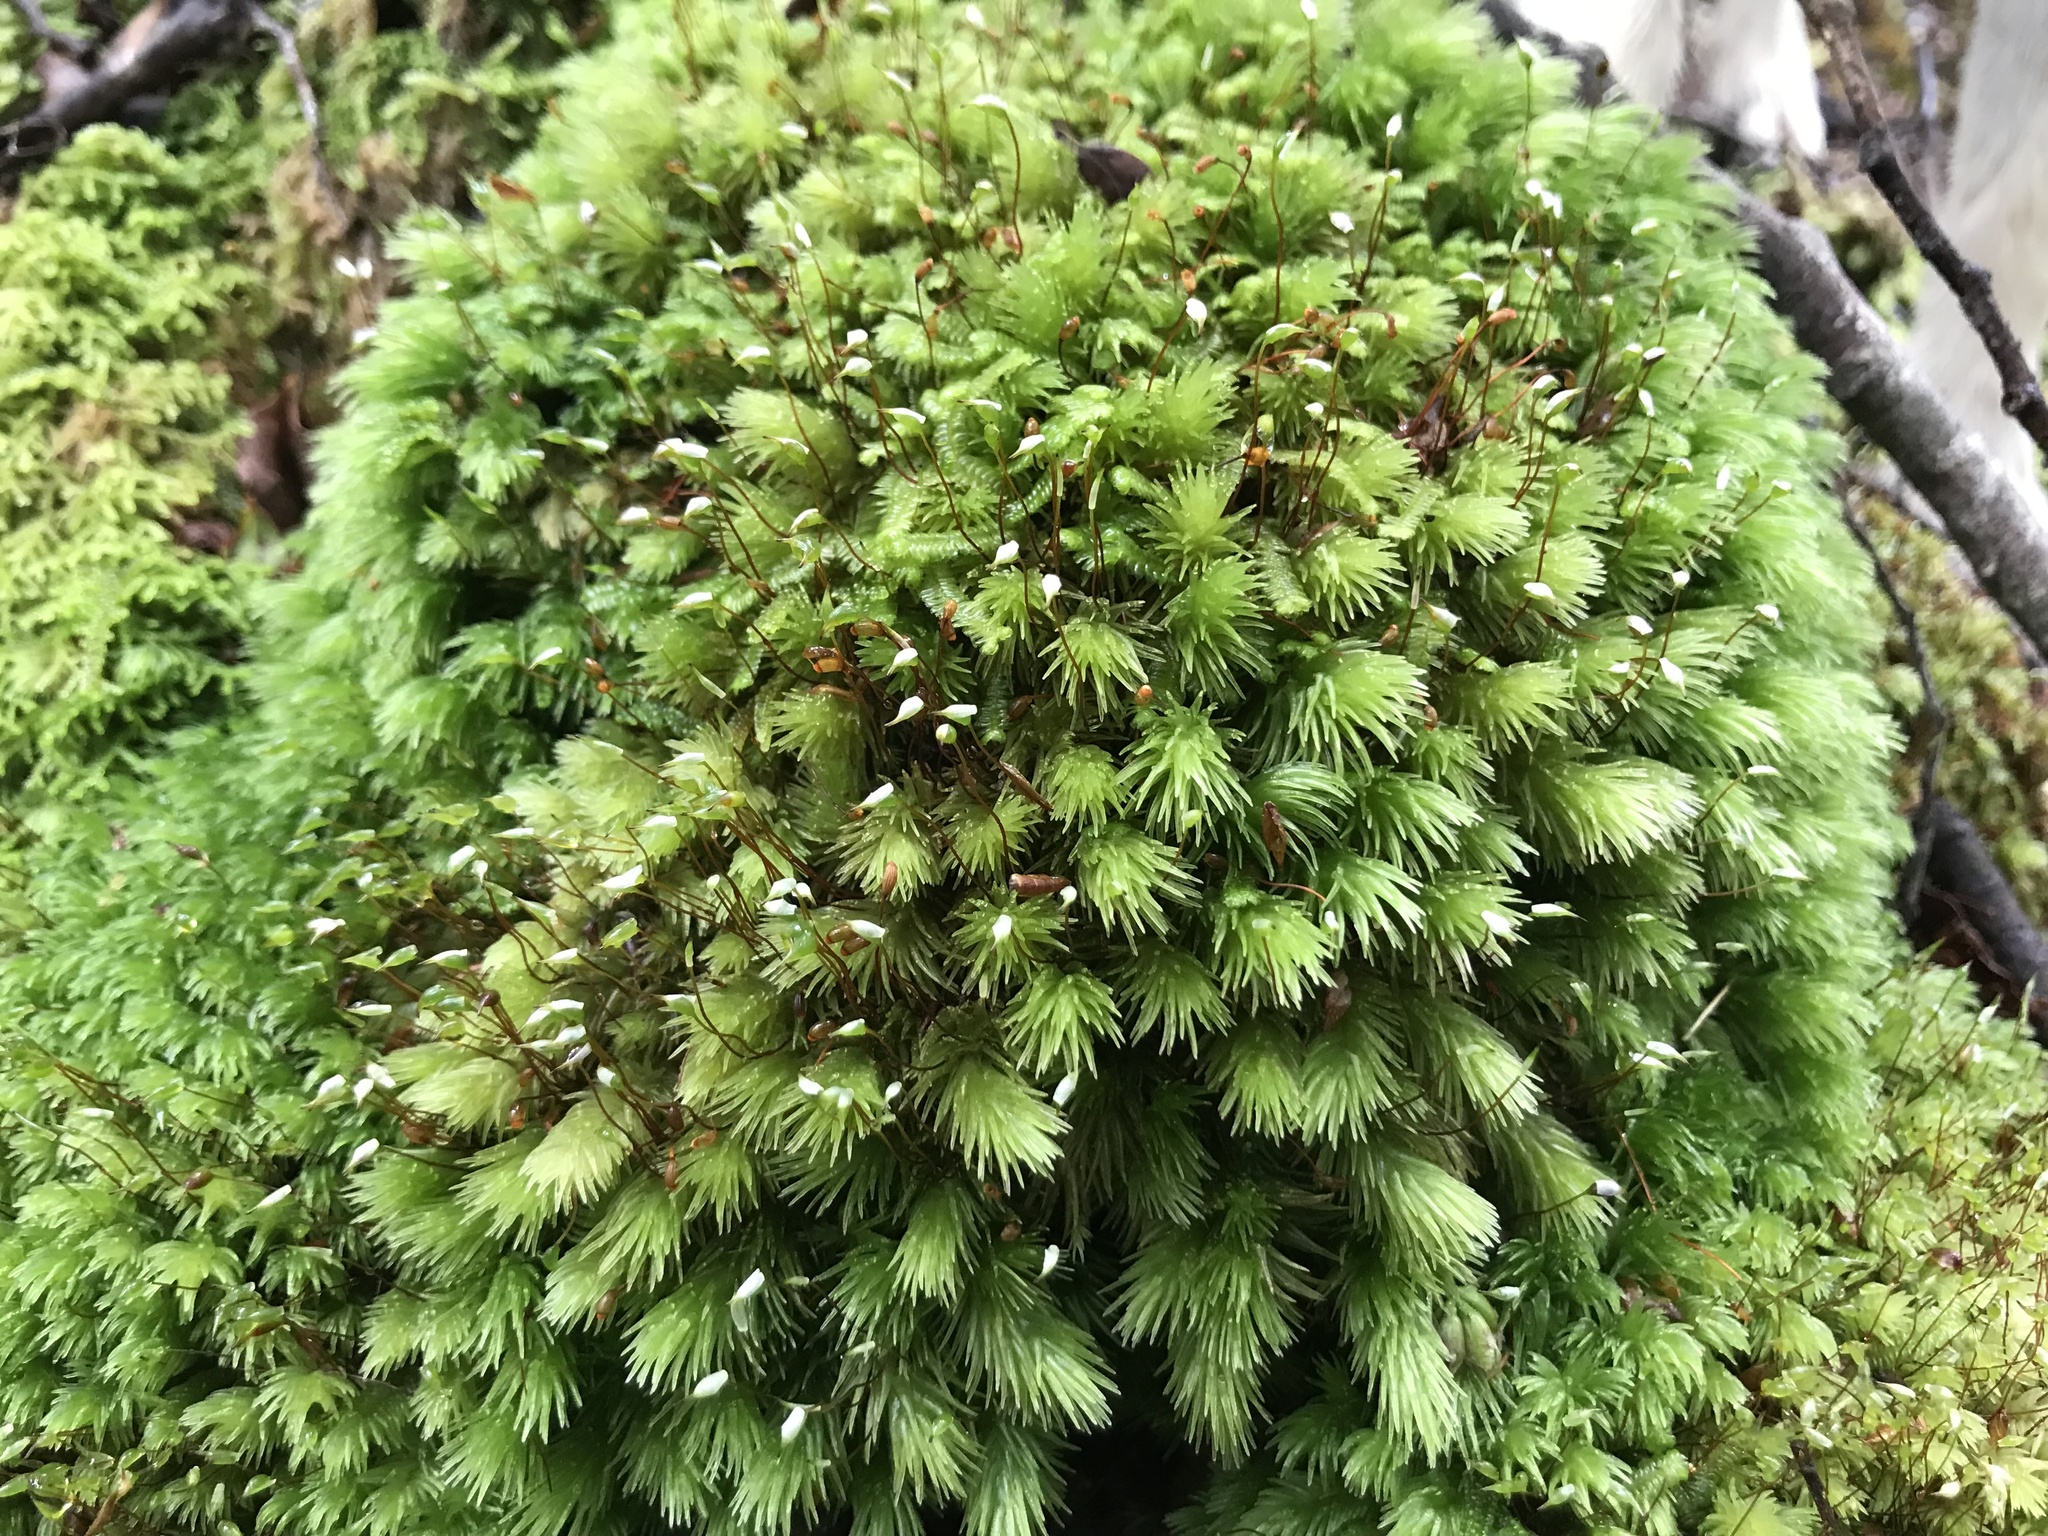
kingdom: Plantae
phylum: Bryophyta
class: Bryopsida
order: Dicranales
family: Leucobryaceae
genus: Leucobryum
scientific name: Leucobryum javense
